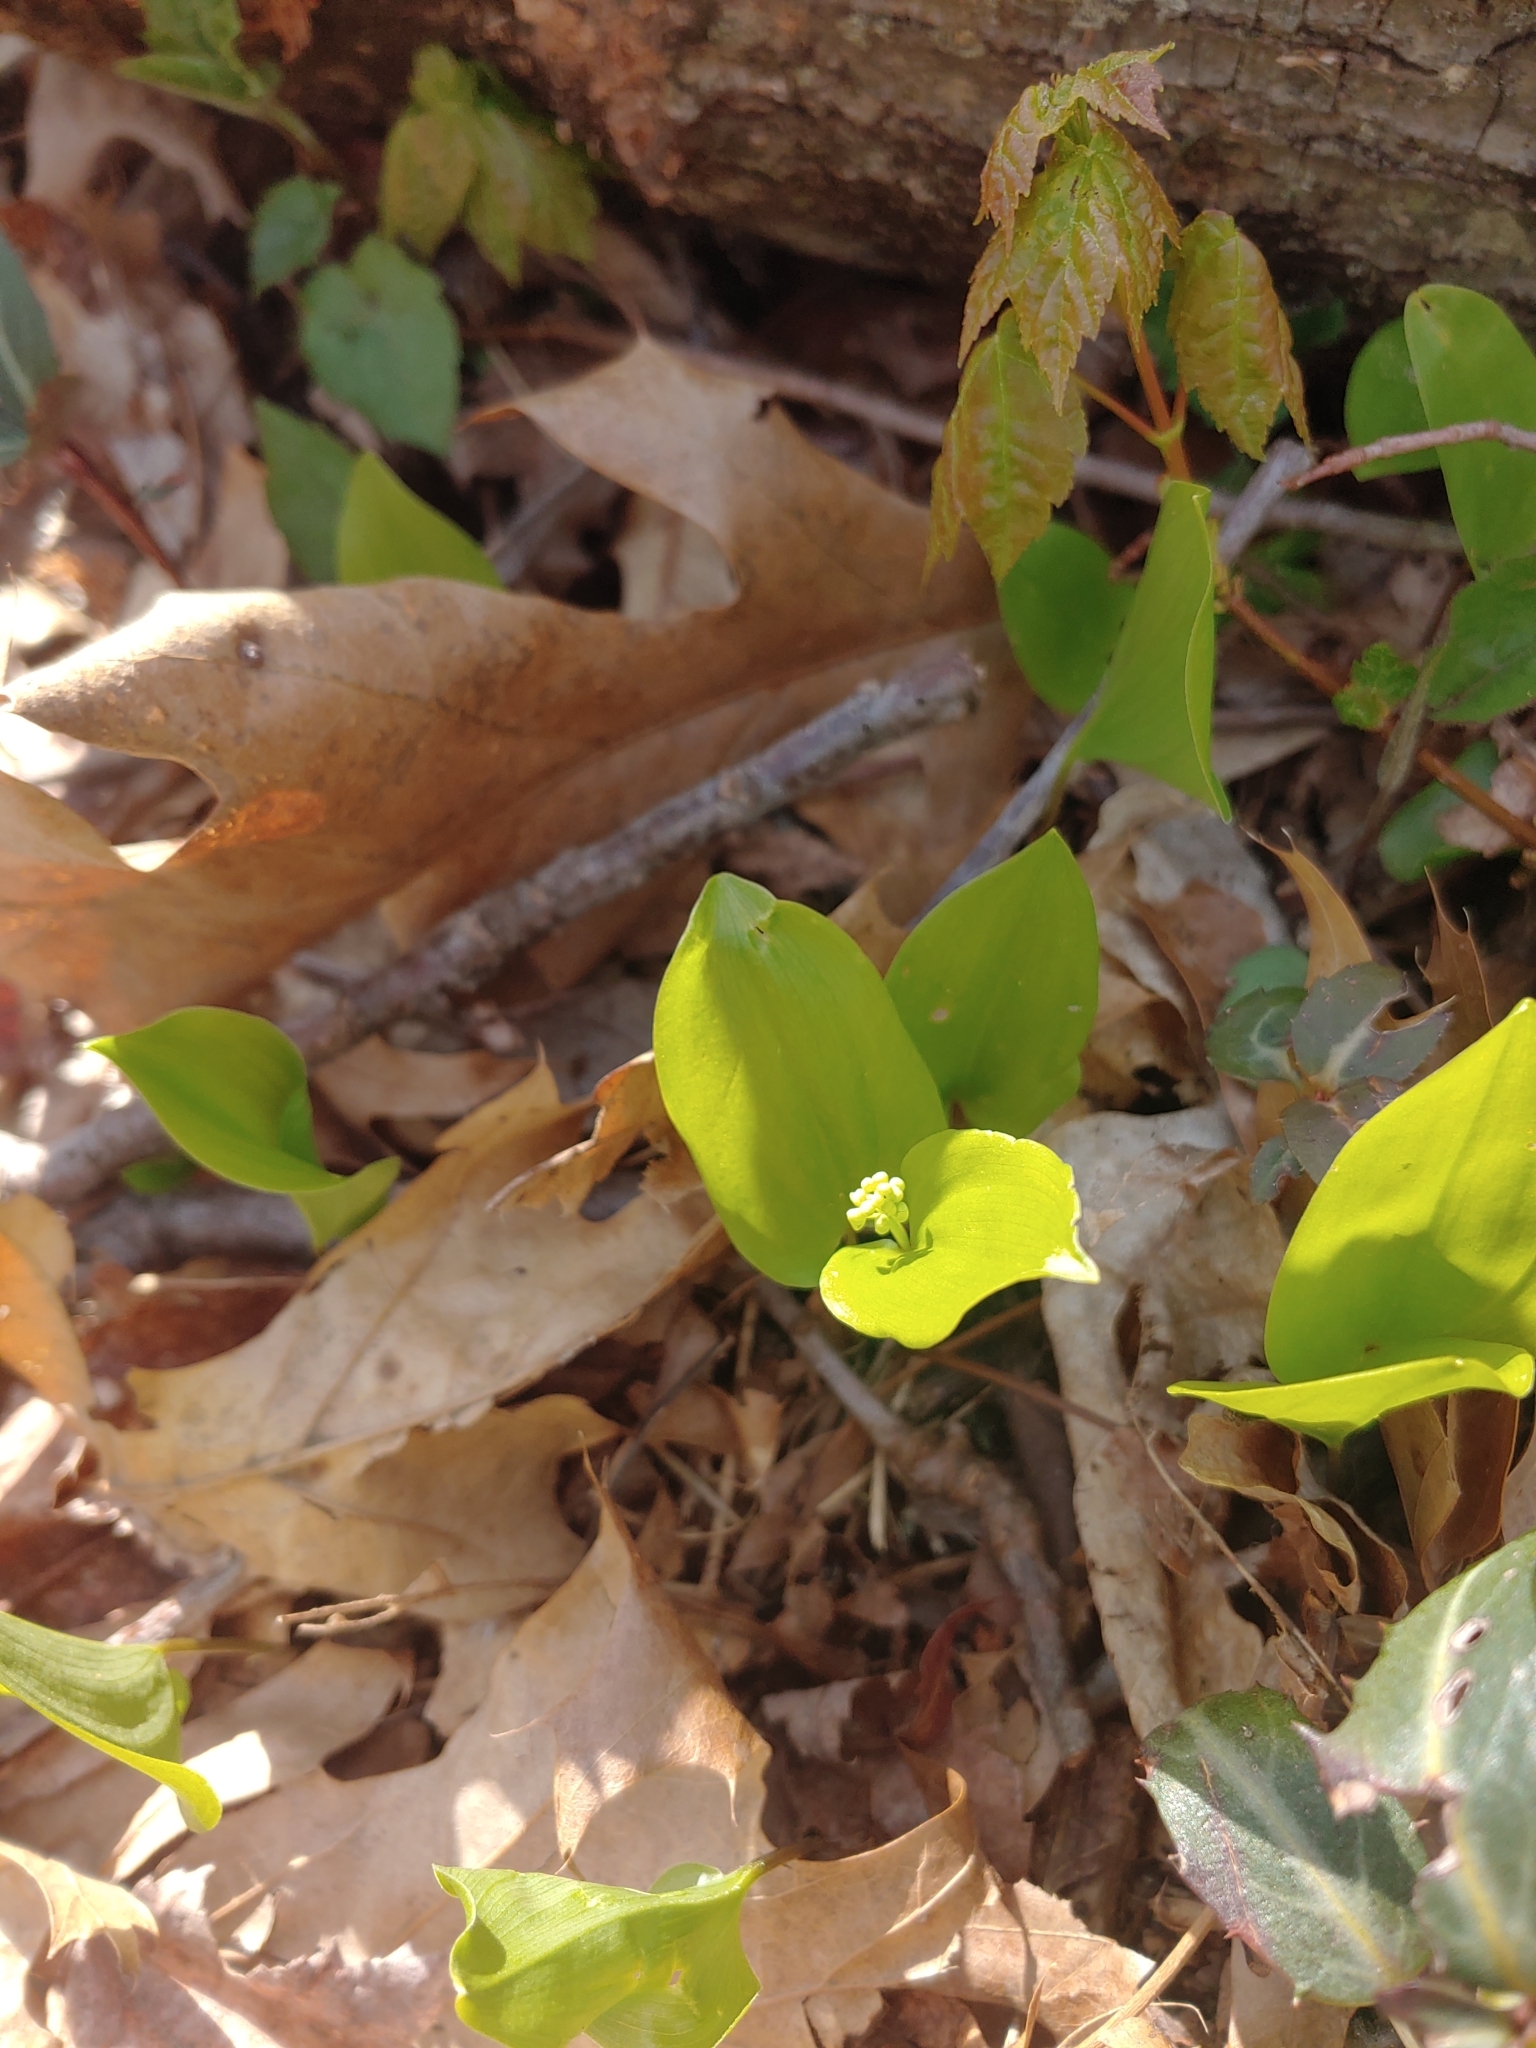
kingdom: Plantae
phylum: Tracheophyta
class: Liliopsida
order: Asparagales
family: Asparagaceae
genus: Maianthemum
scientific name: Maianthemum canadense
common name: False lily-of-the-valley
